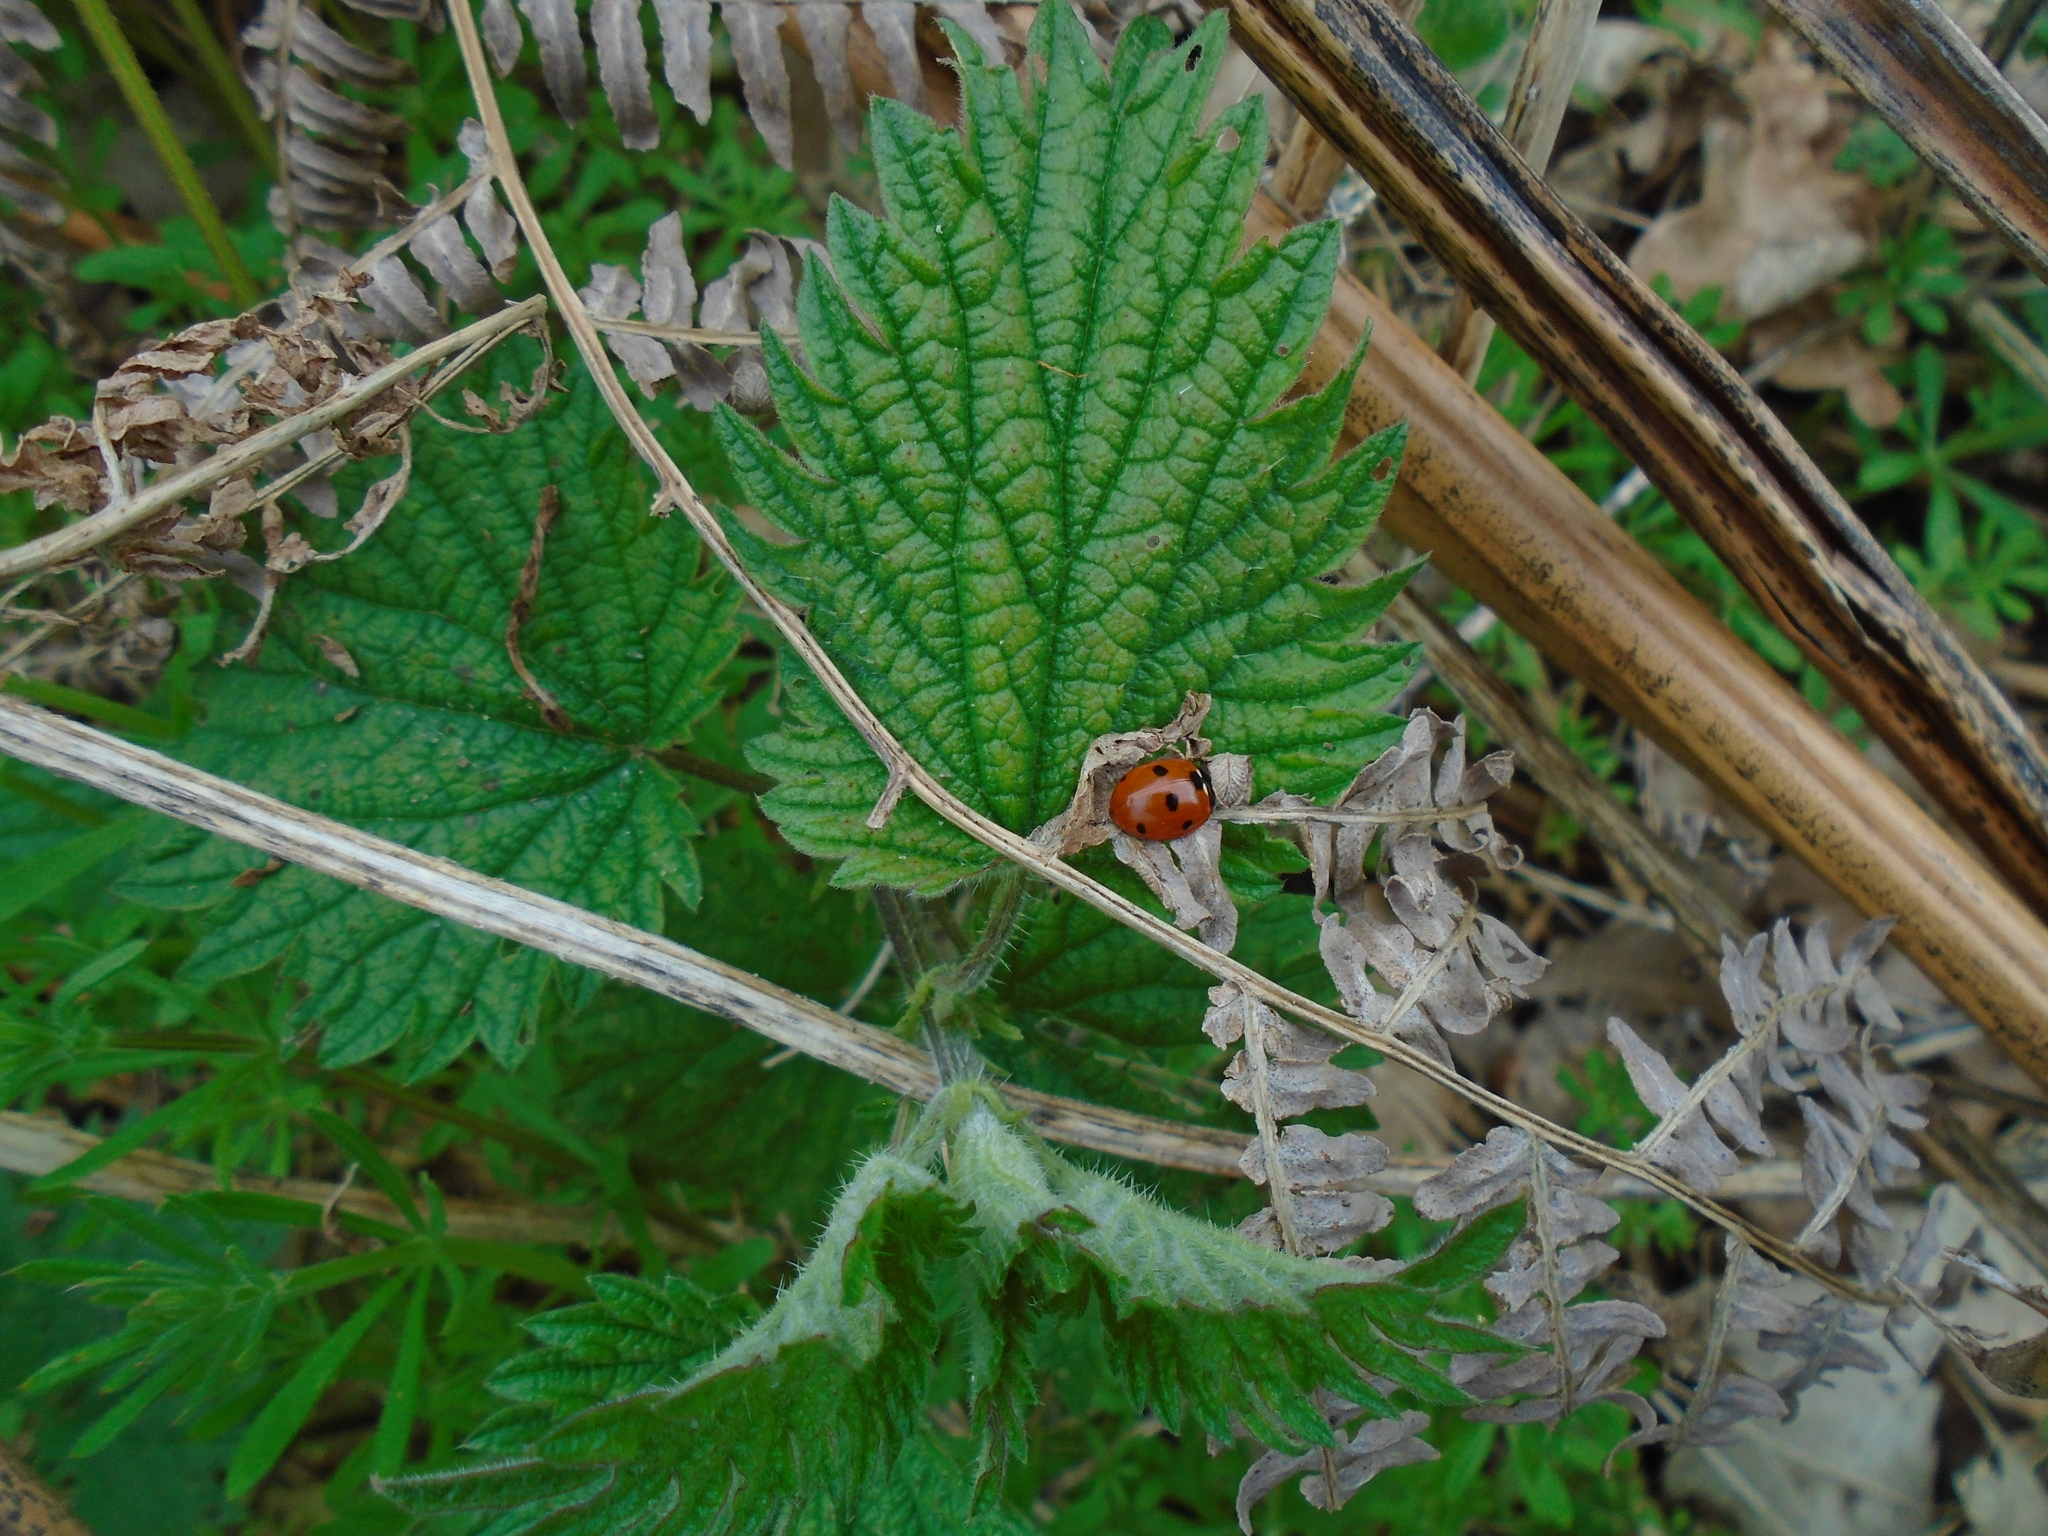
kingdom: Animalia
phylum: Arthropoda
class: Insecta
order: Coleoptera
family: Coccinellidae
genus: Coccinella
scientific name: Coccinella septempunctata
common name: Sevenspotted lady beetle
